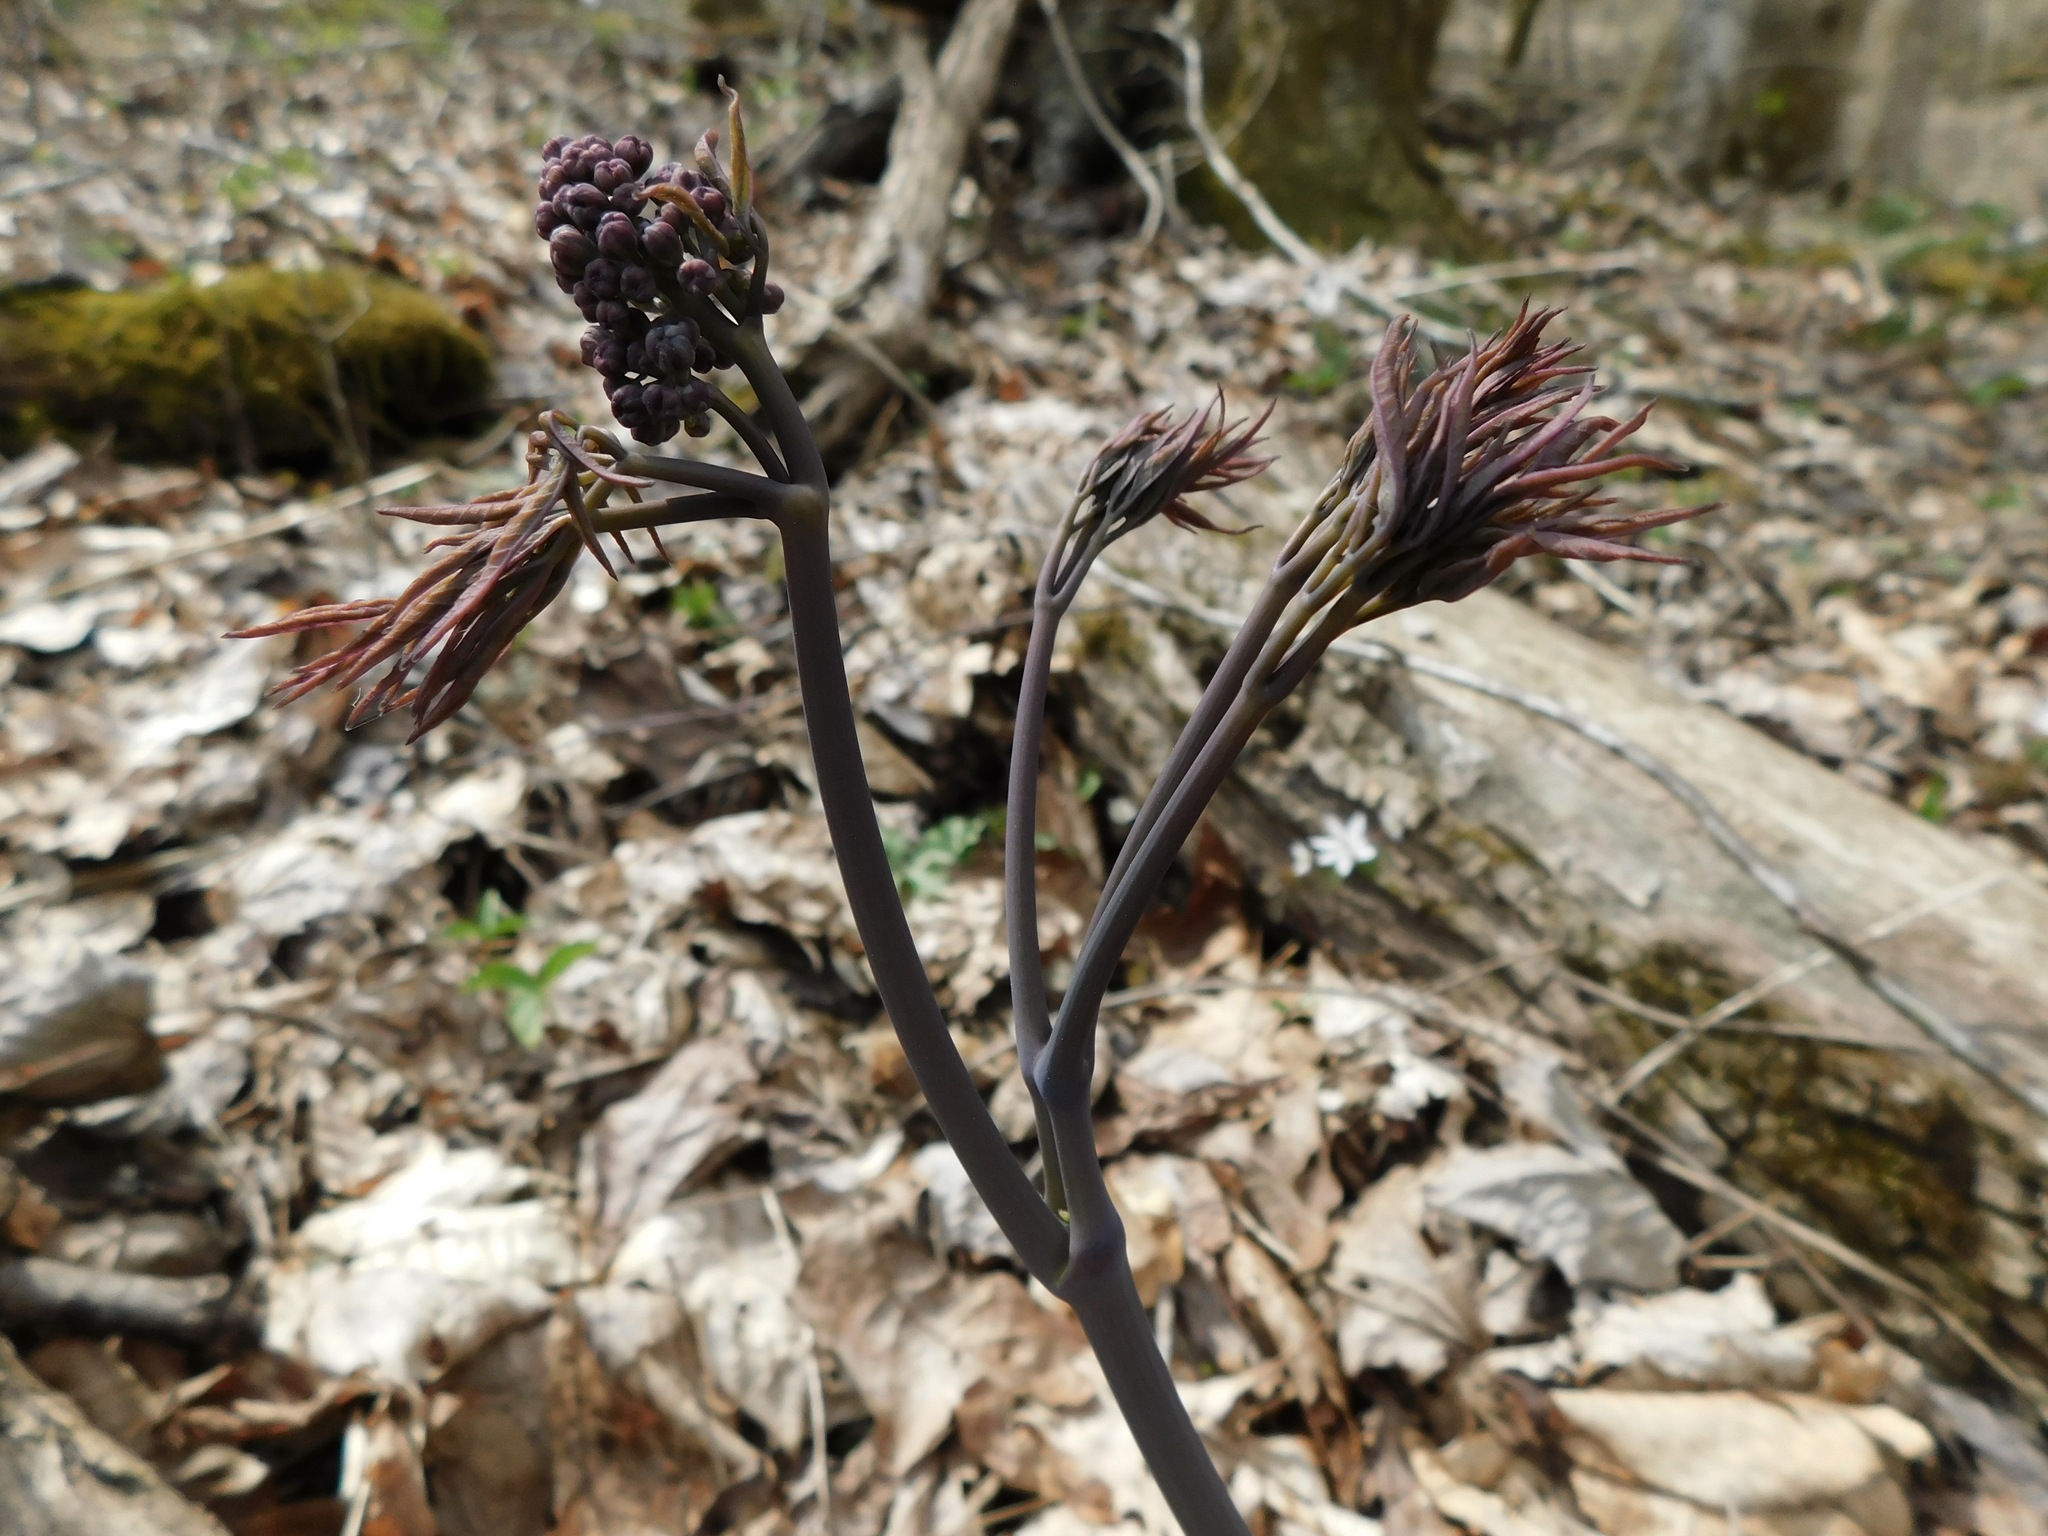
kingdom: Plantae
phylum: Tracheophyta
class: Magnoliopsida
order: Ranunculales
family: Berberidaceae
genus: Caulophyllum
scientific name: Caulophyllum thalictroides
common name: Blue cohosh
